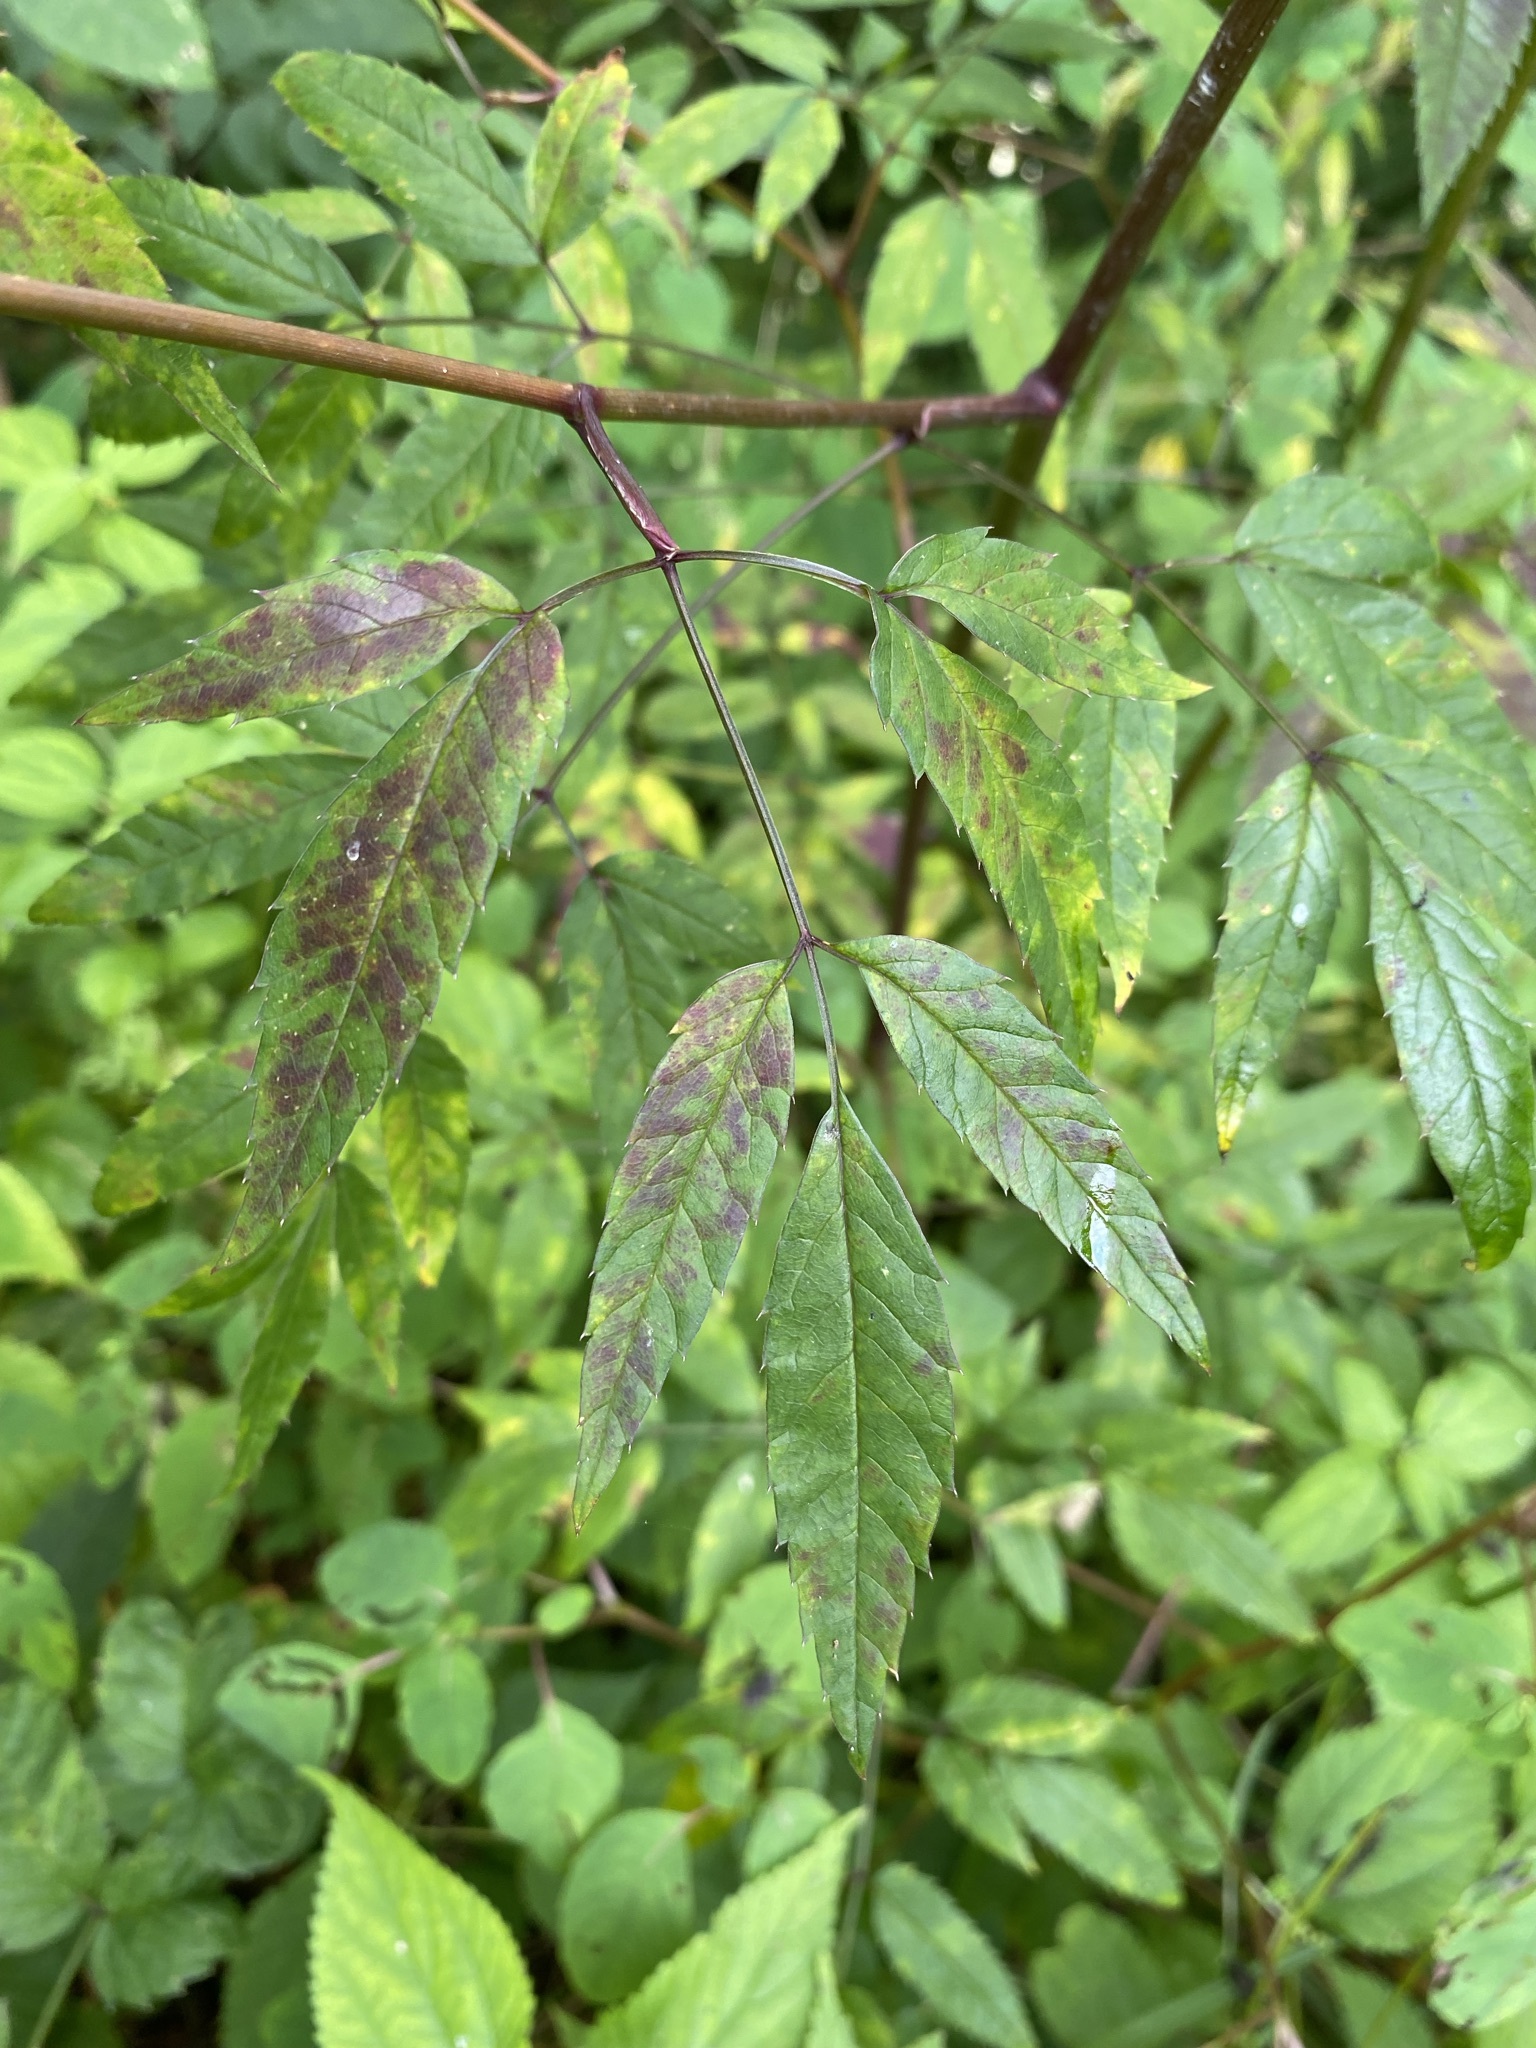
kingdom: Plantae
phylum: Tracheophyta
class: Magnoliopsida
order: Apiales
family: Apiaceae
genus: Cicuta
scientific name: Cicuta maculata
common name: Spotted cowbane
